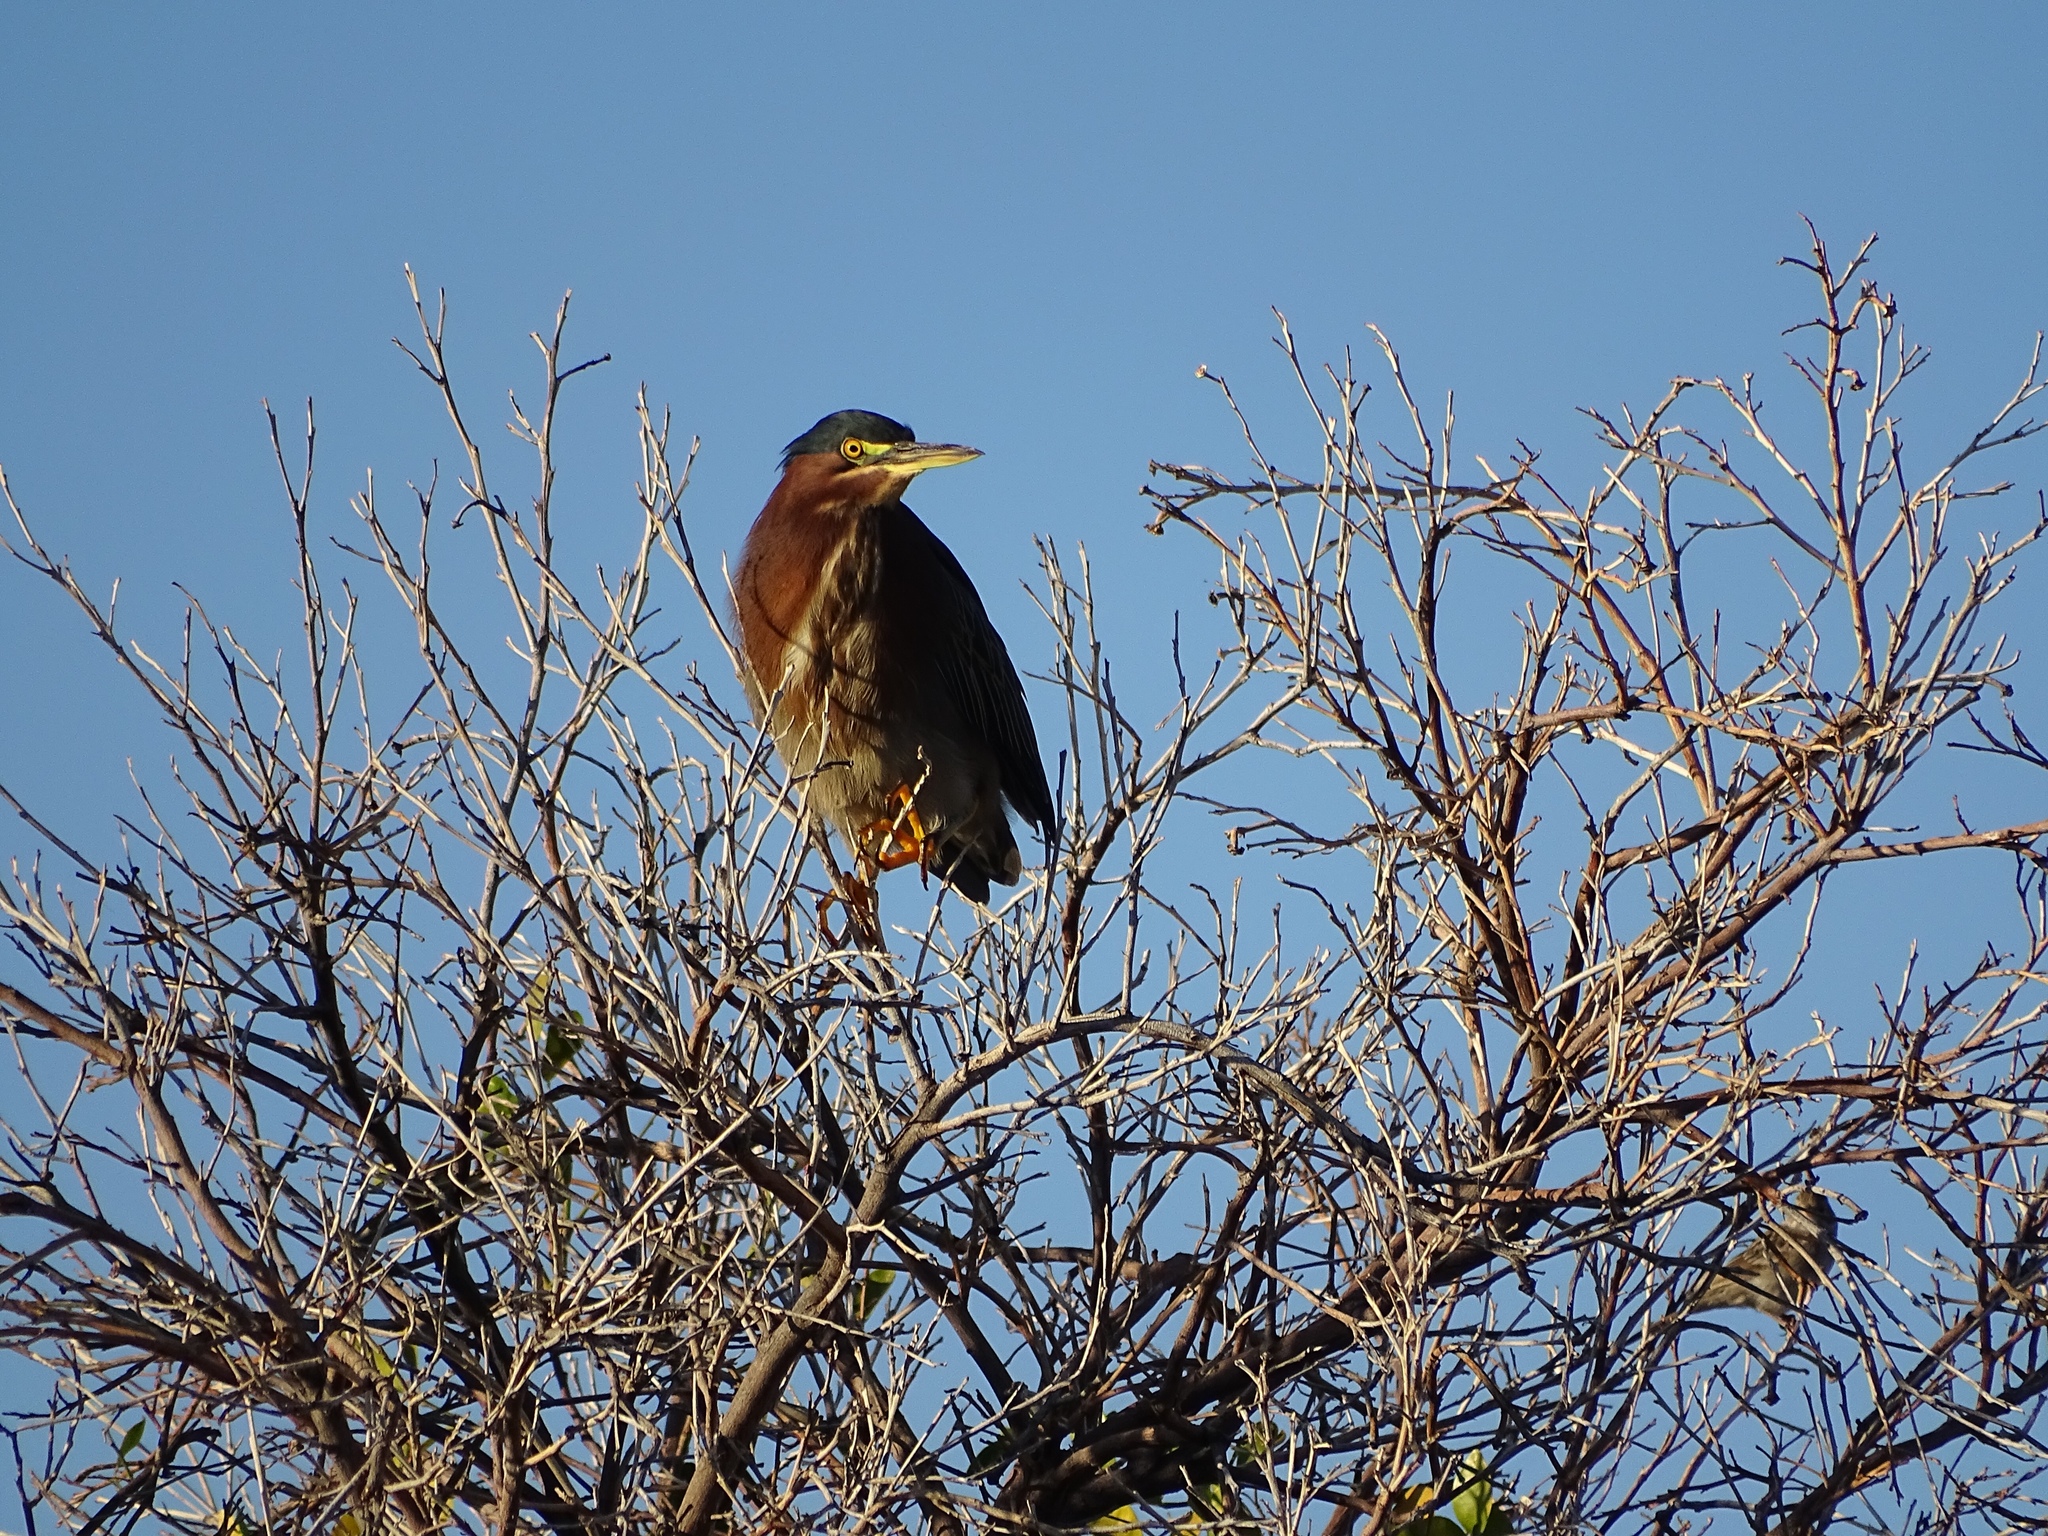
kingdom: Animalia
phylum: Chordata
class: Aves
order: Pelecaniformes
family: Ardeidae
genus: Butorides
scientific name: Butorides virescens
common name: Green heron
